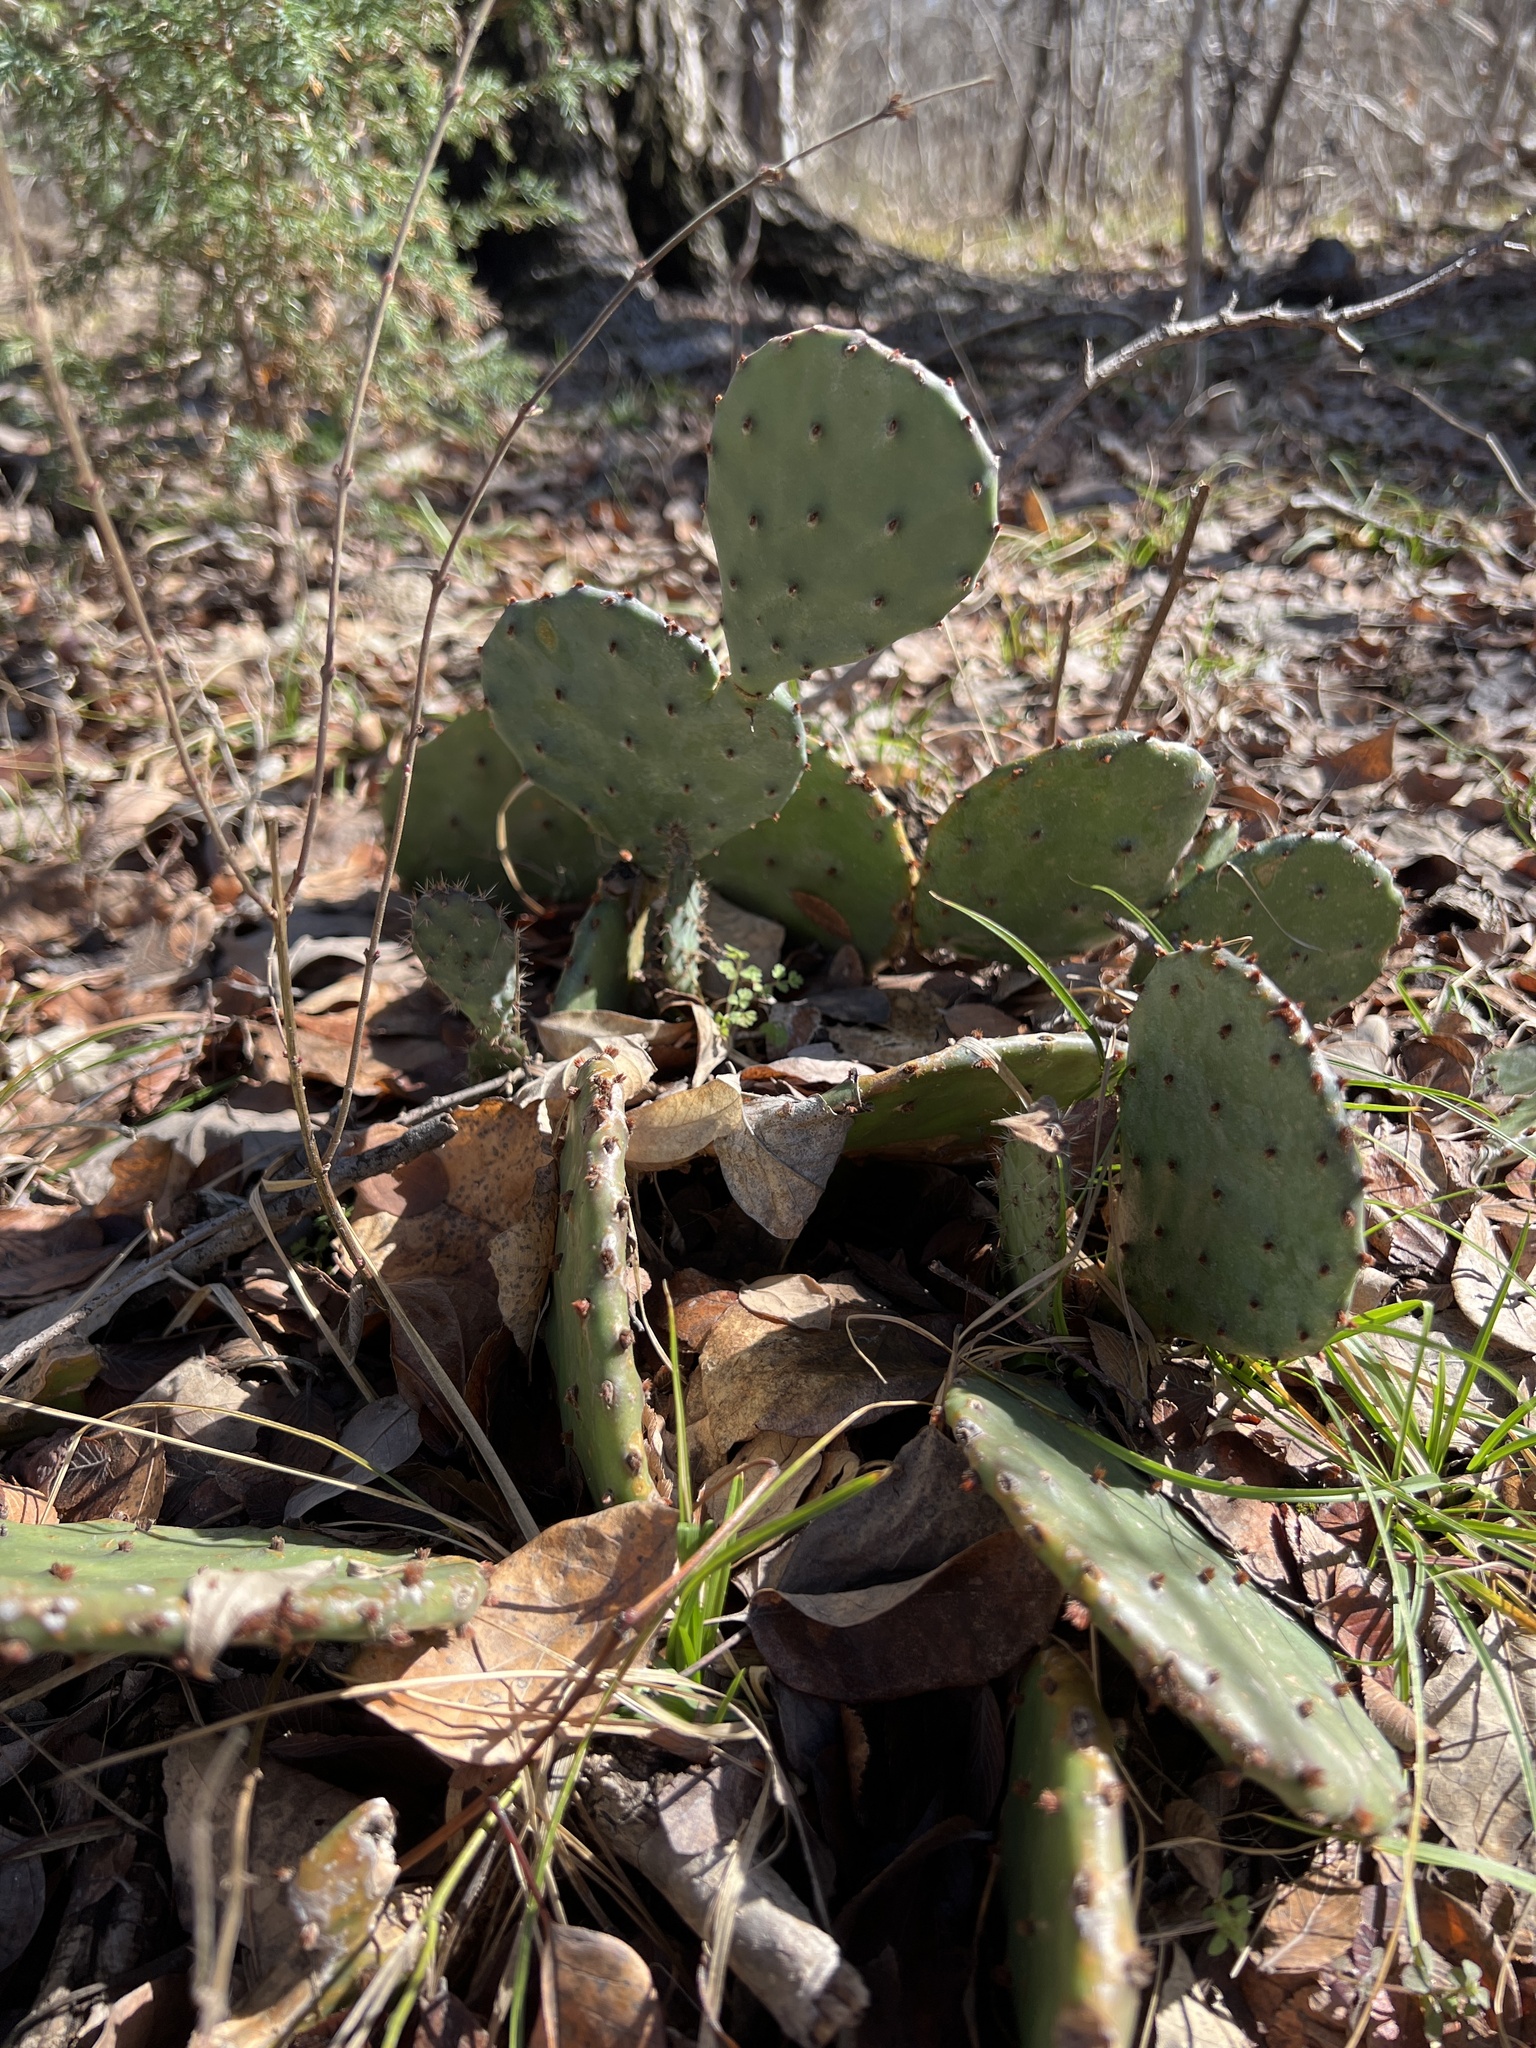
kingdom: Plantae
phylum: Tracheophyta
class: Magnoliopsida
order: Caryophyllales
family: Cactaceae
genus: Opuntia
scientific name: Opuntia macrorhiza
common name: Grassland pricklypear
